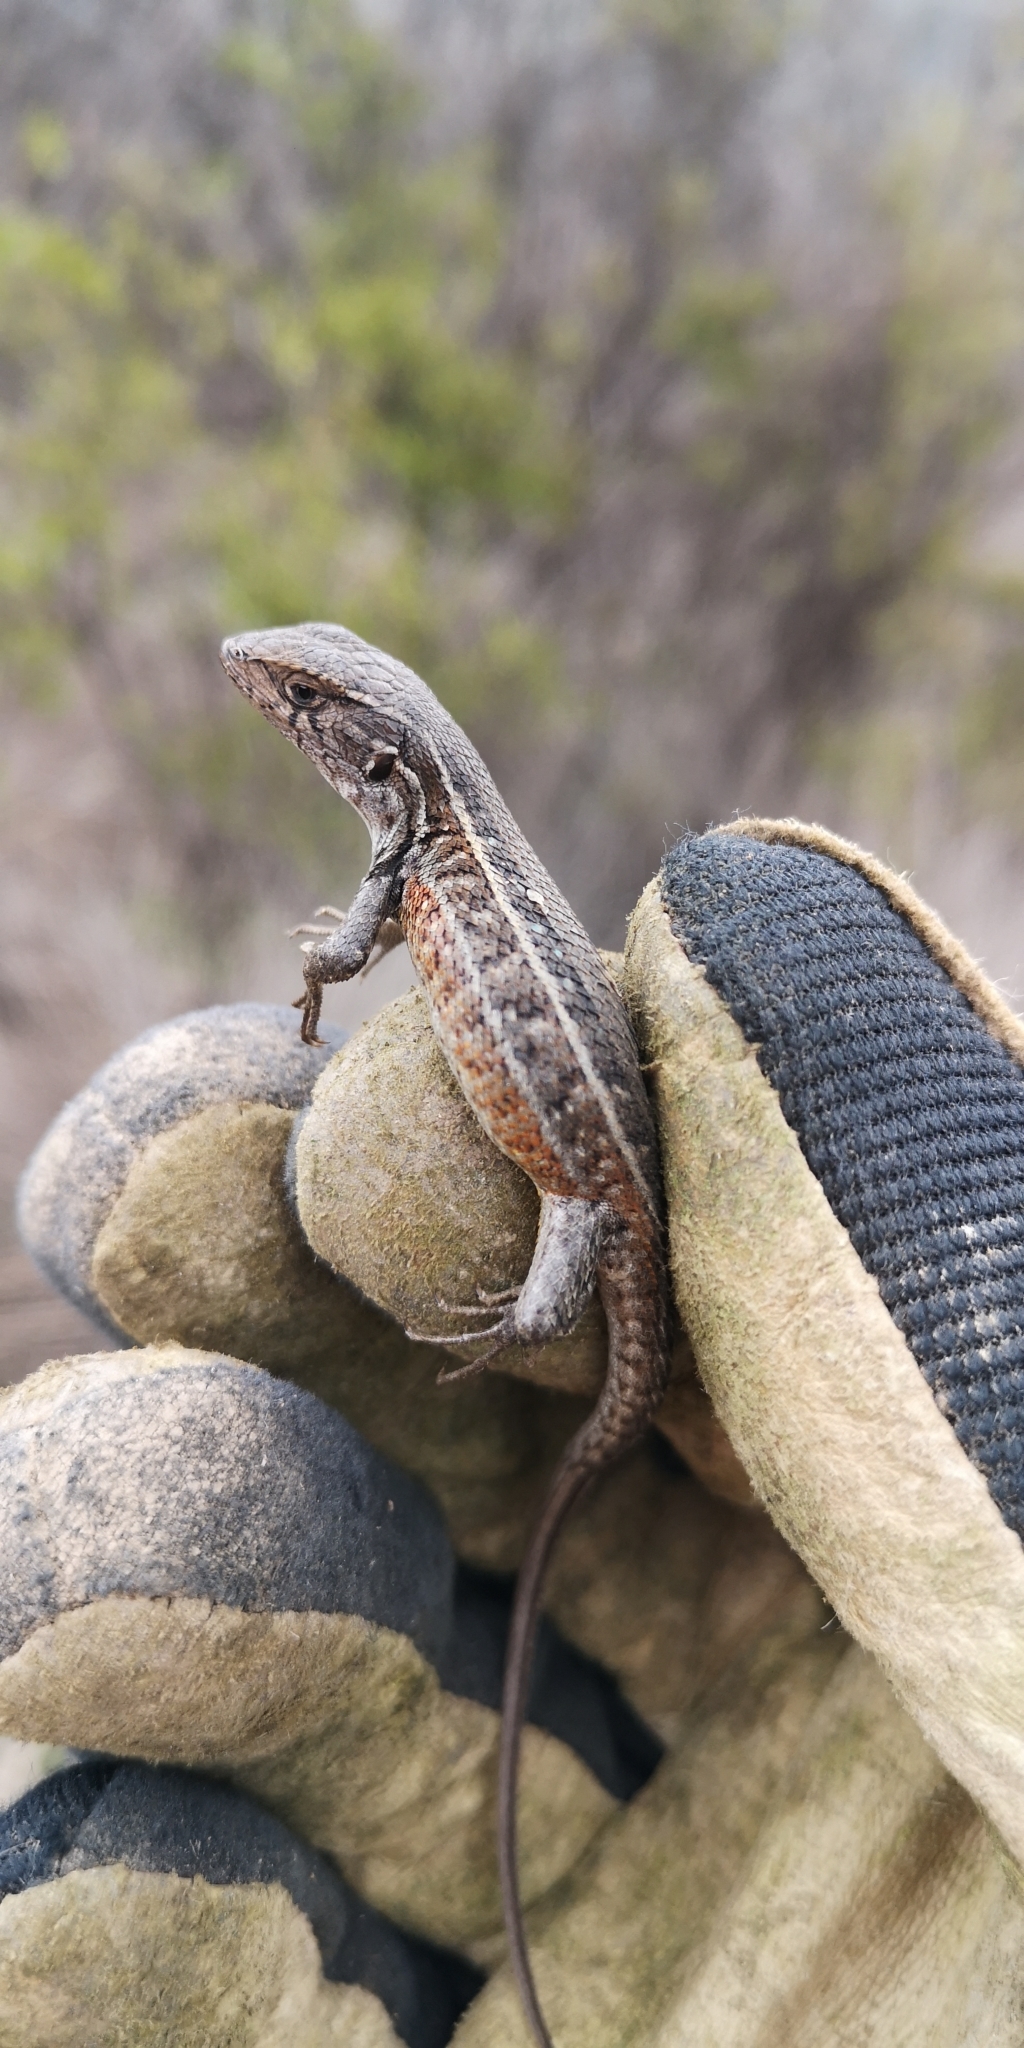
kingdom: Animalia
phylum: Chordata
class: Squamata
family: Liolaemidae
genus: Liolaemus
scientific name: Liolaemus lemniscatus
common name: Wreath tree iguana
